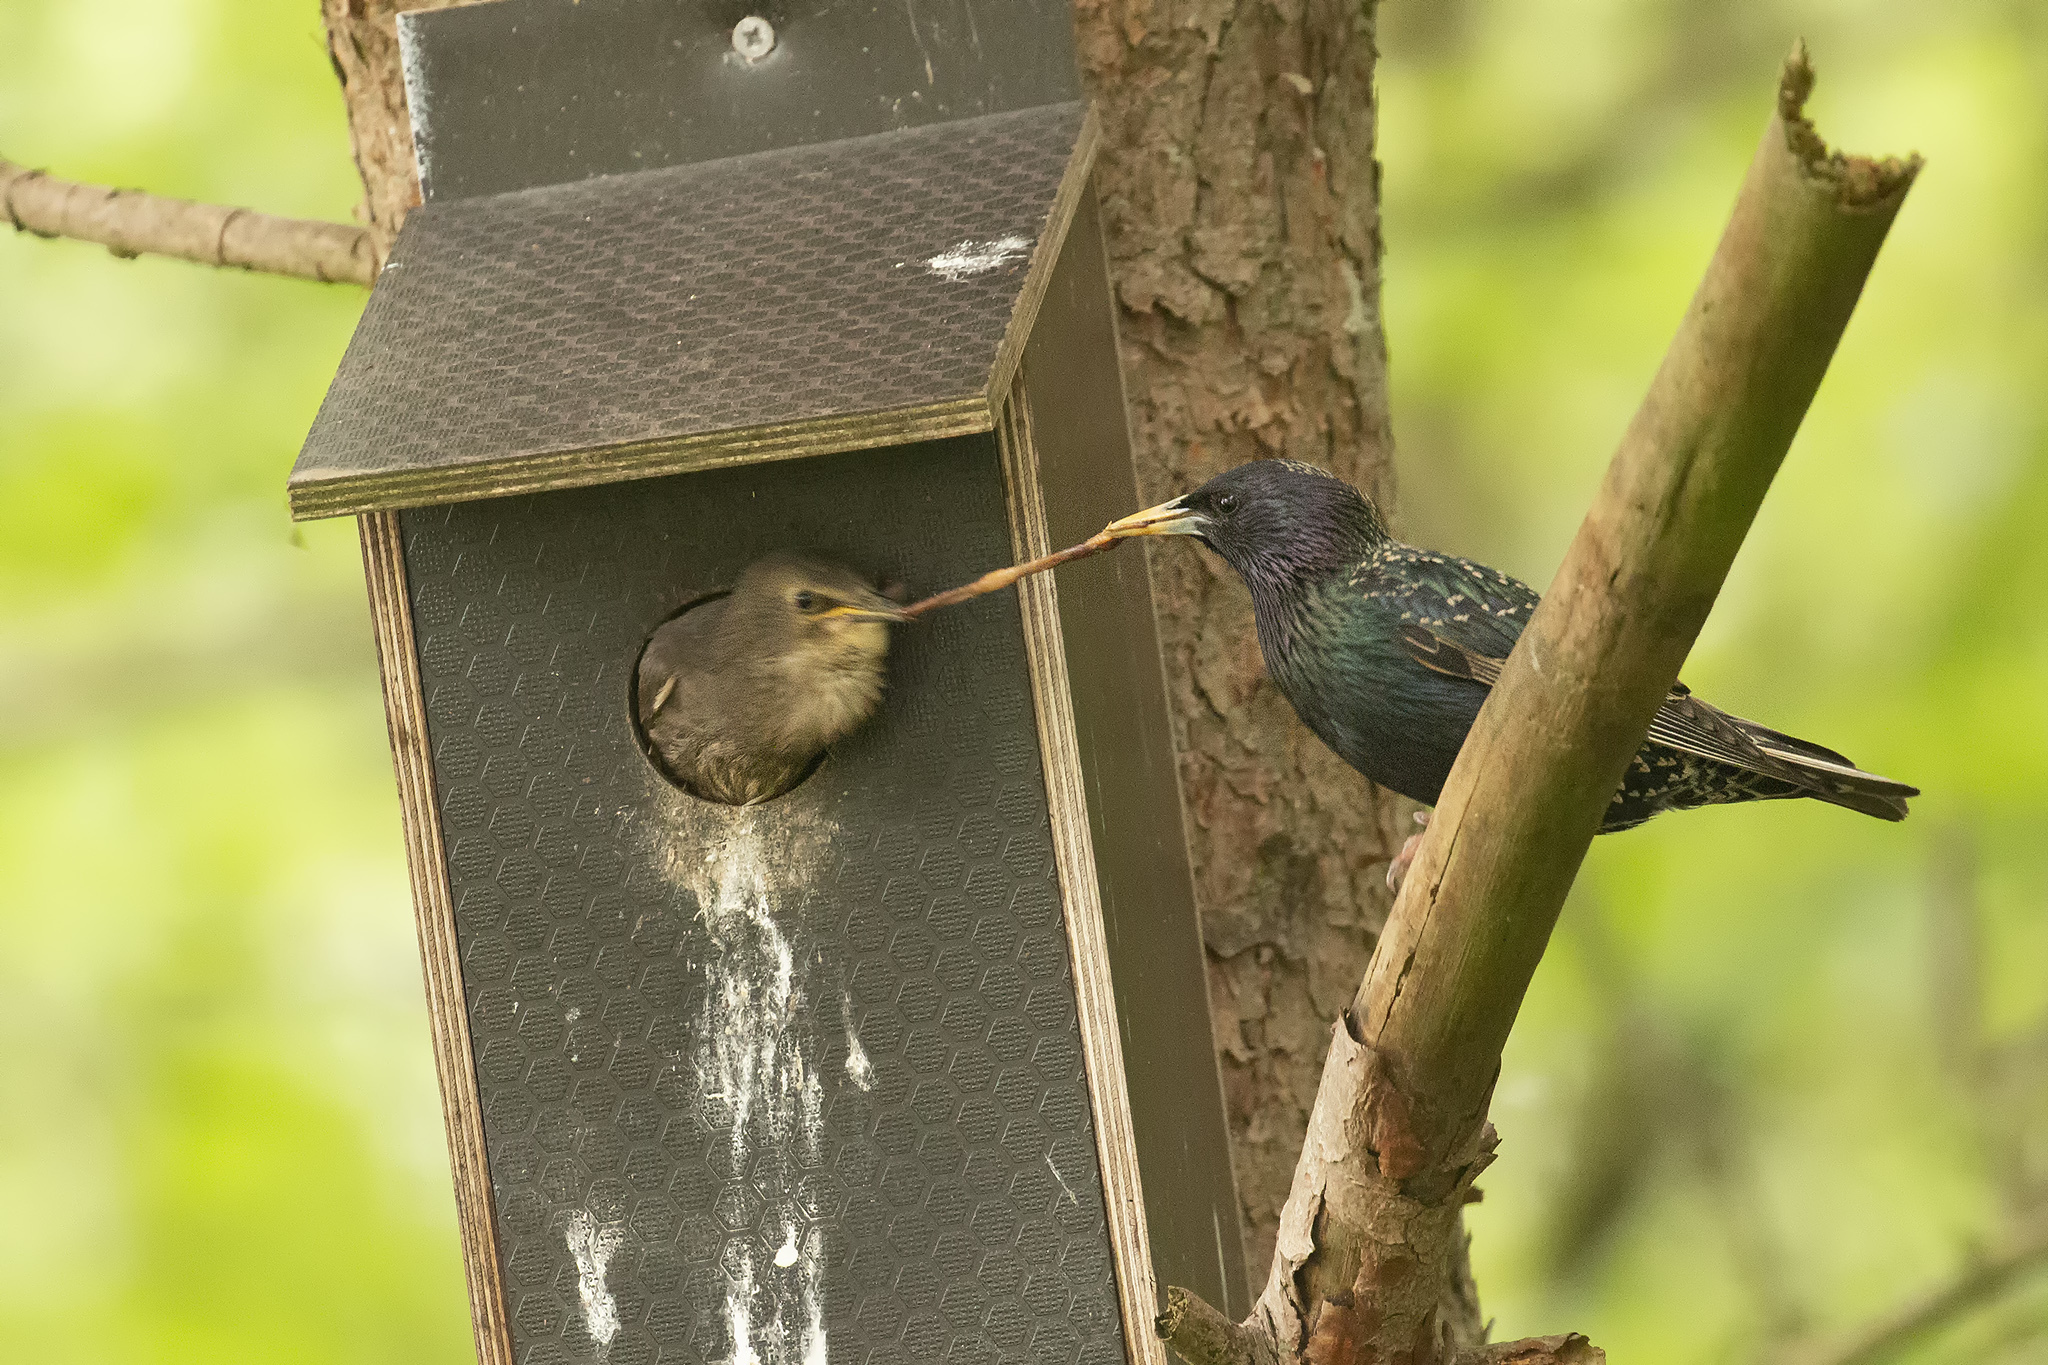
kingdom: Animalia
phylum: Chordata
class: Aves
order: Passeriformes
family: Sturnidae
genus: Sturnus
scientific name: Sturnus vulgaris
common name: Common starling
